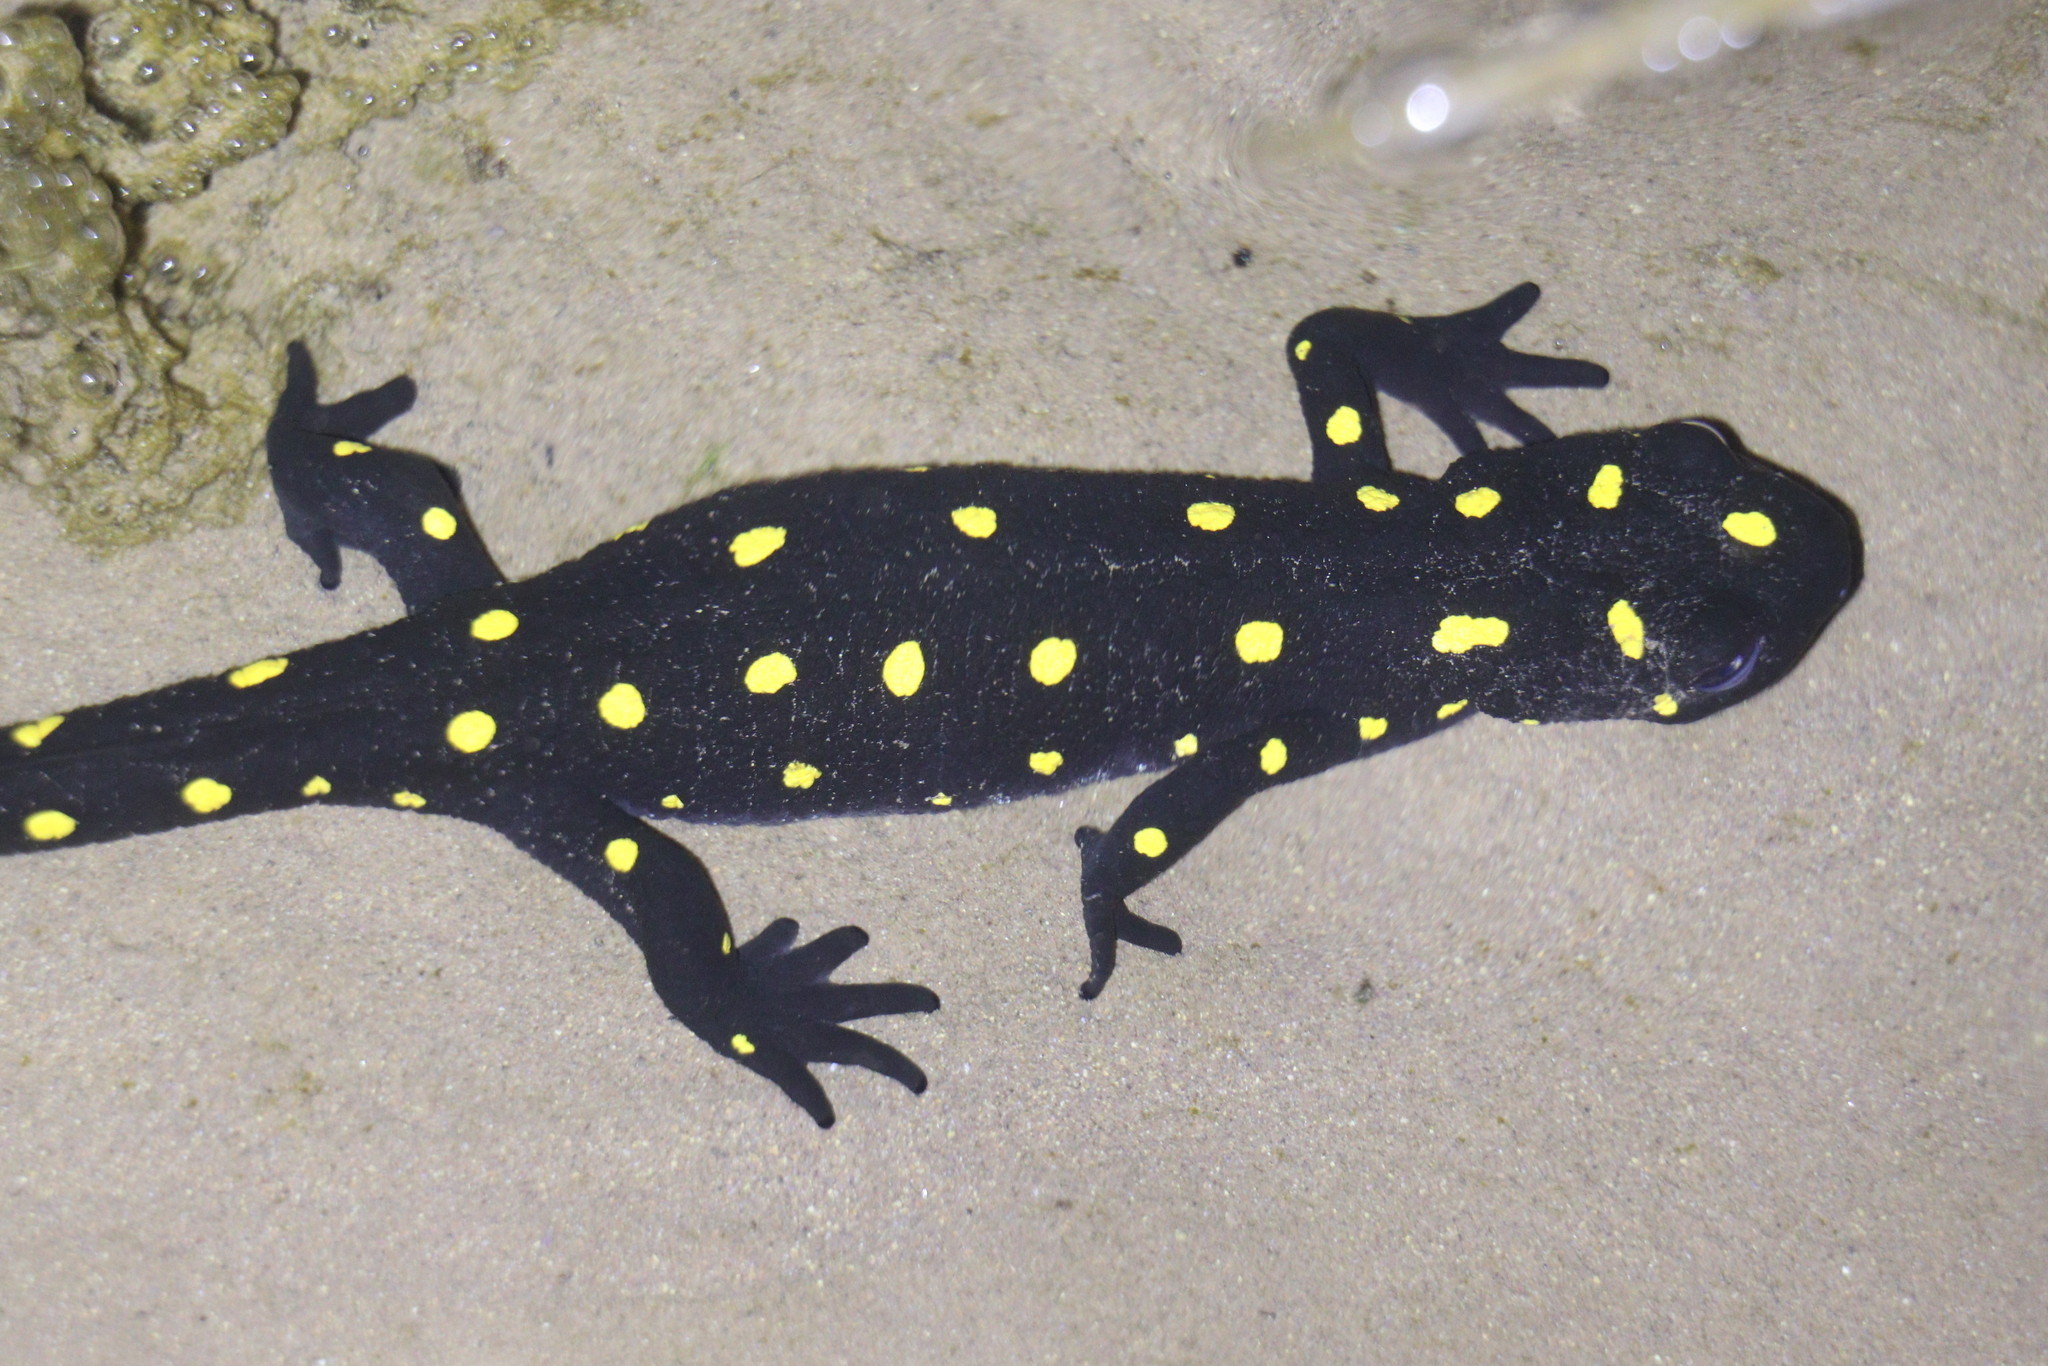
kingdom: Animalia
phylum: Chordata
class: Amphibia
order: Caudata
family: Salamandridae
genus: Neurergus
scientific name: Neurergus barani
